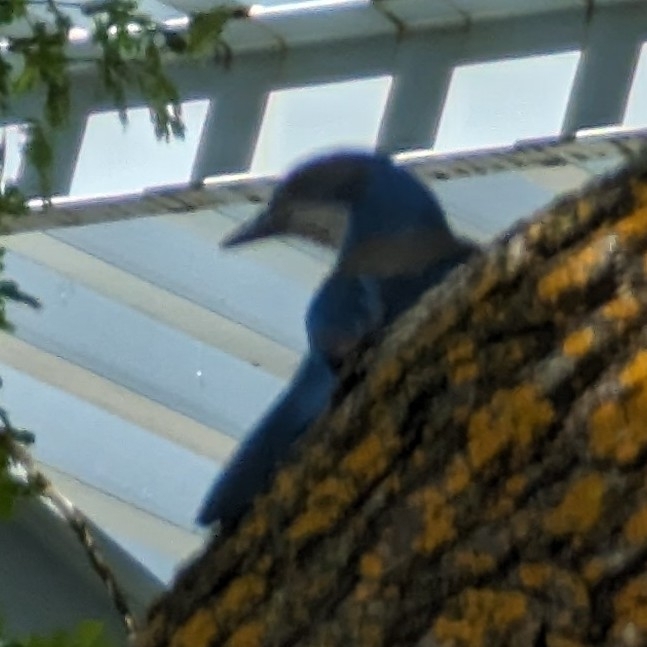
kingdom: Animalia
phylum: Chordata
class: Aves
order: Passeriformes
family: Corvidae
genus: Aphelocoma
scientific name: Aphelocoma californica
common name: California scrub-jay
